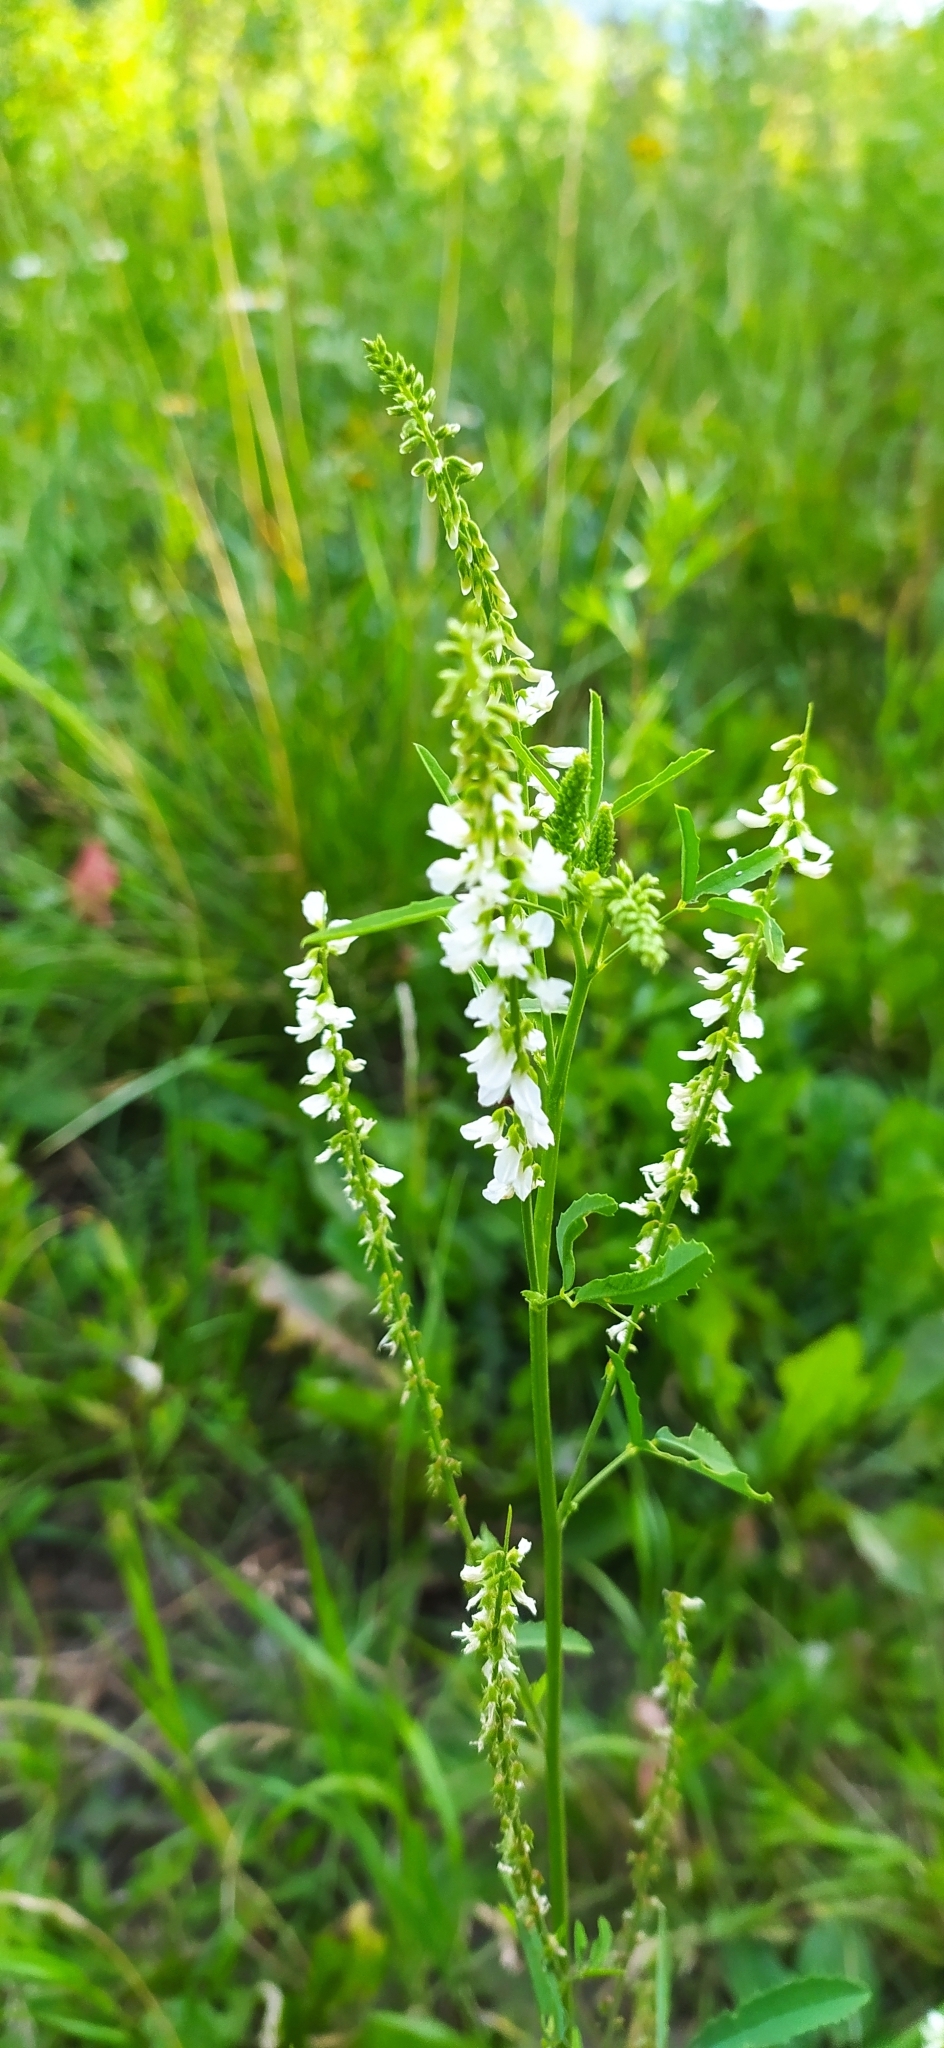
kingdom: Plantae
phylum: Tracheophyta
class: Magnoliopsida
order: Fabales
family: Fabaceae
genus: Melilotus
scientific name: Melilotus albus
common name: White melilot
